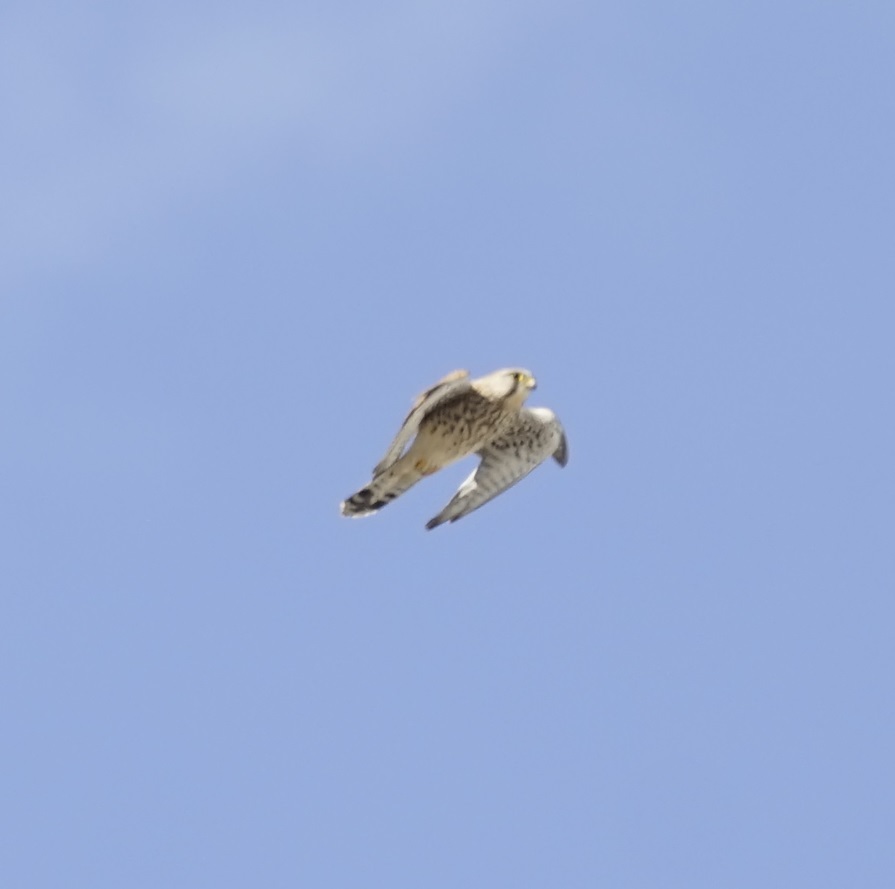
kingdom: Animalia
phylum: Chordata
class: Aves
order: Falconiformes
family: Falconidae
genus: Falco
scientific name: Falco tinnunculus
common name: Common kestrel
